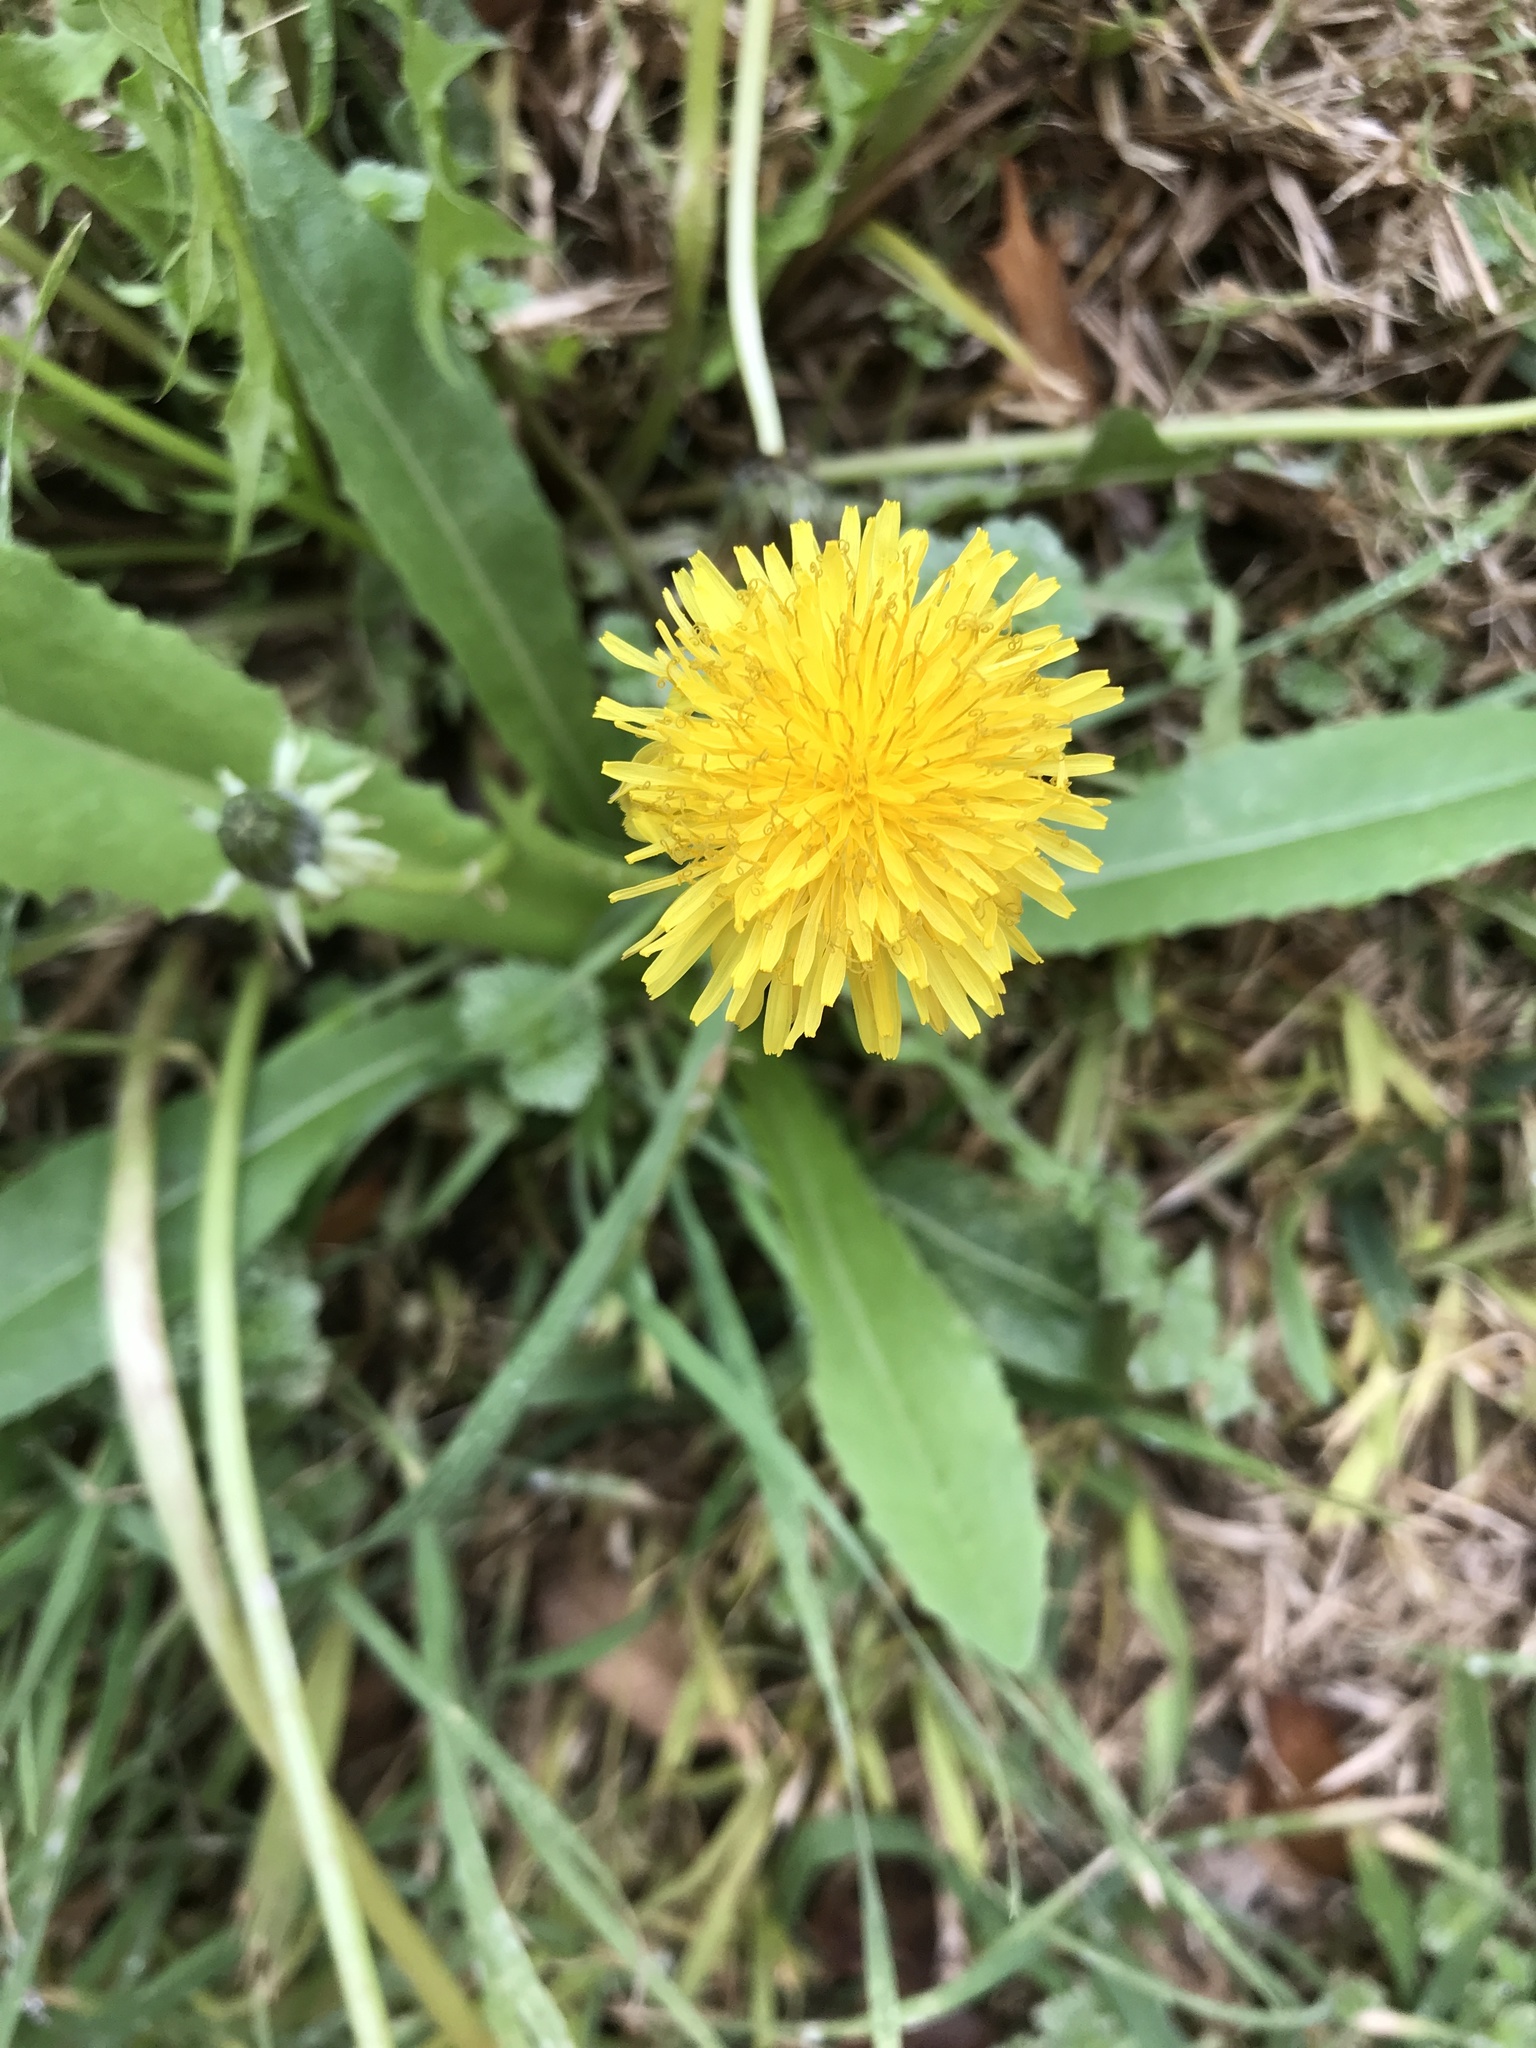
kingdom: Plantae
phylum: Tracheophyta
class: Magnoliopsida
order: Asterales
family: Asteraceae
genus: Taraxacum
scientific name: Taraxacum officinale
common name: Common dandelion
